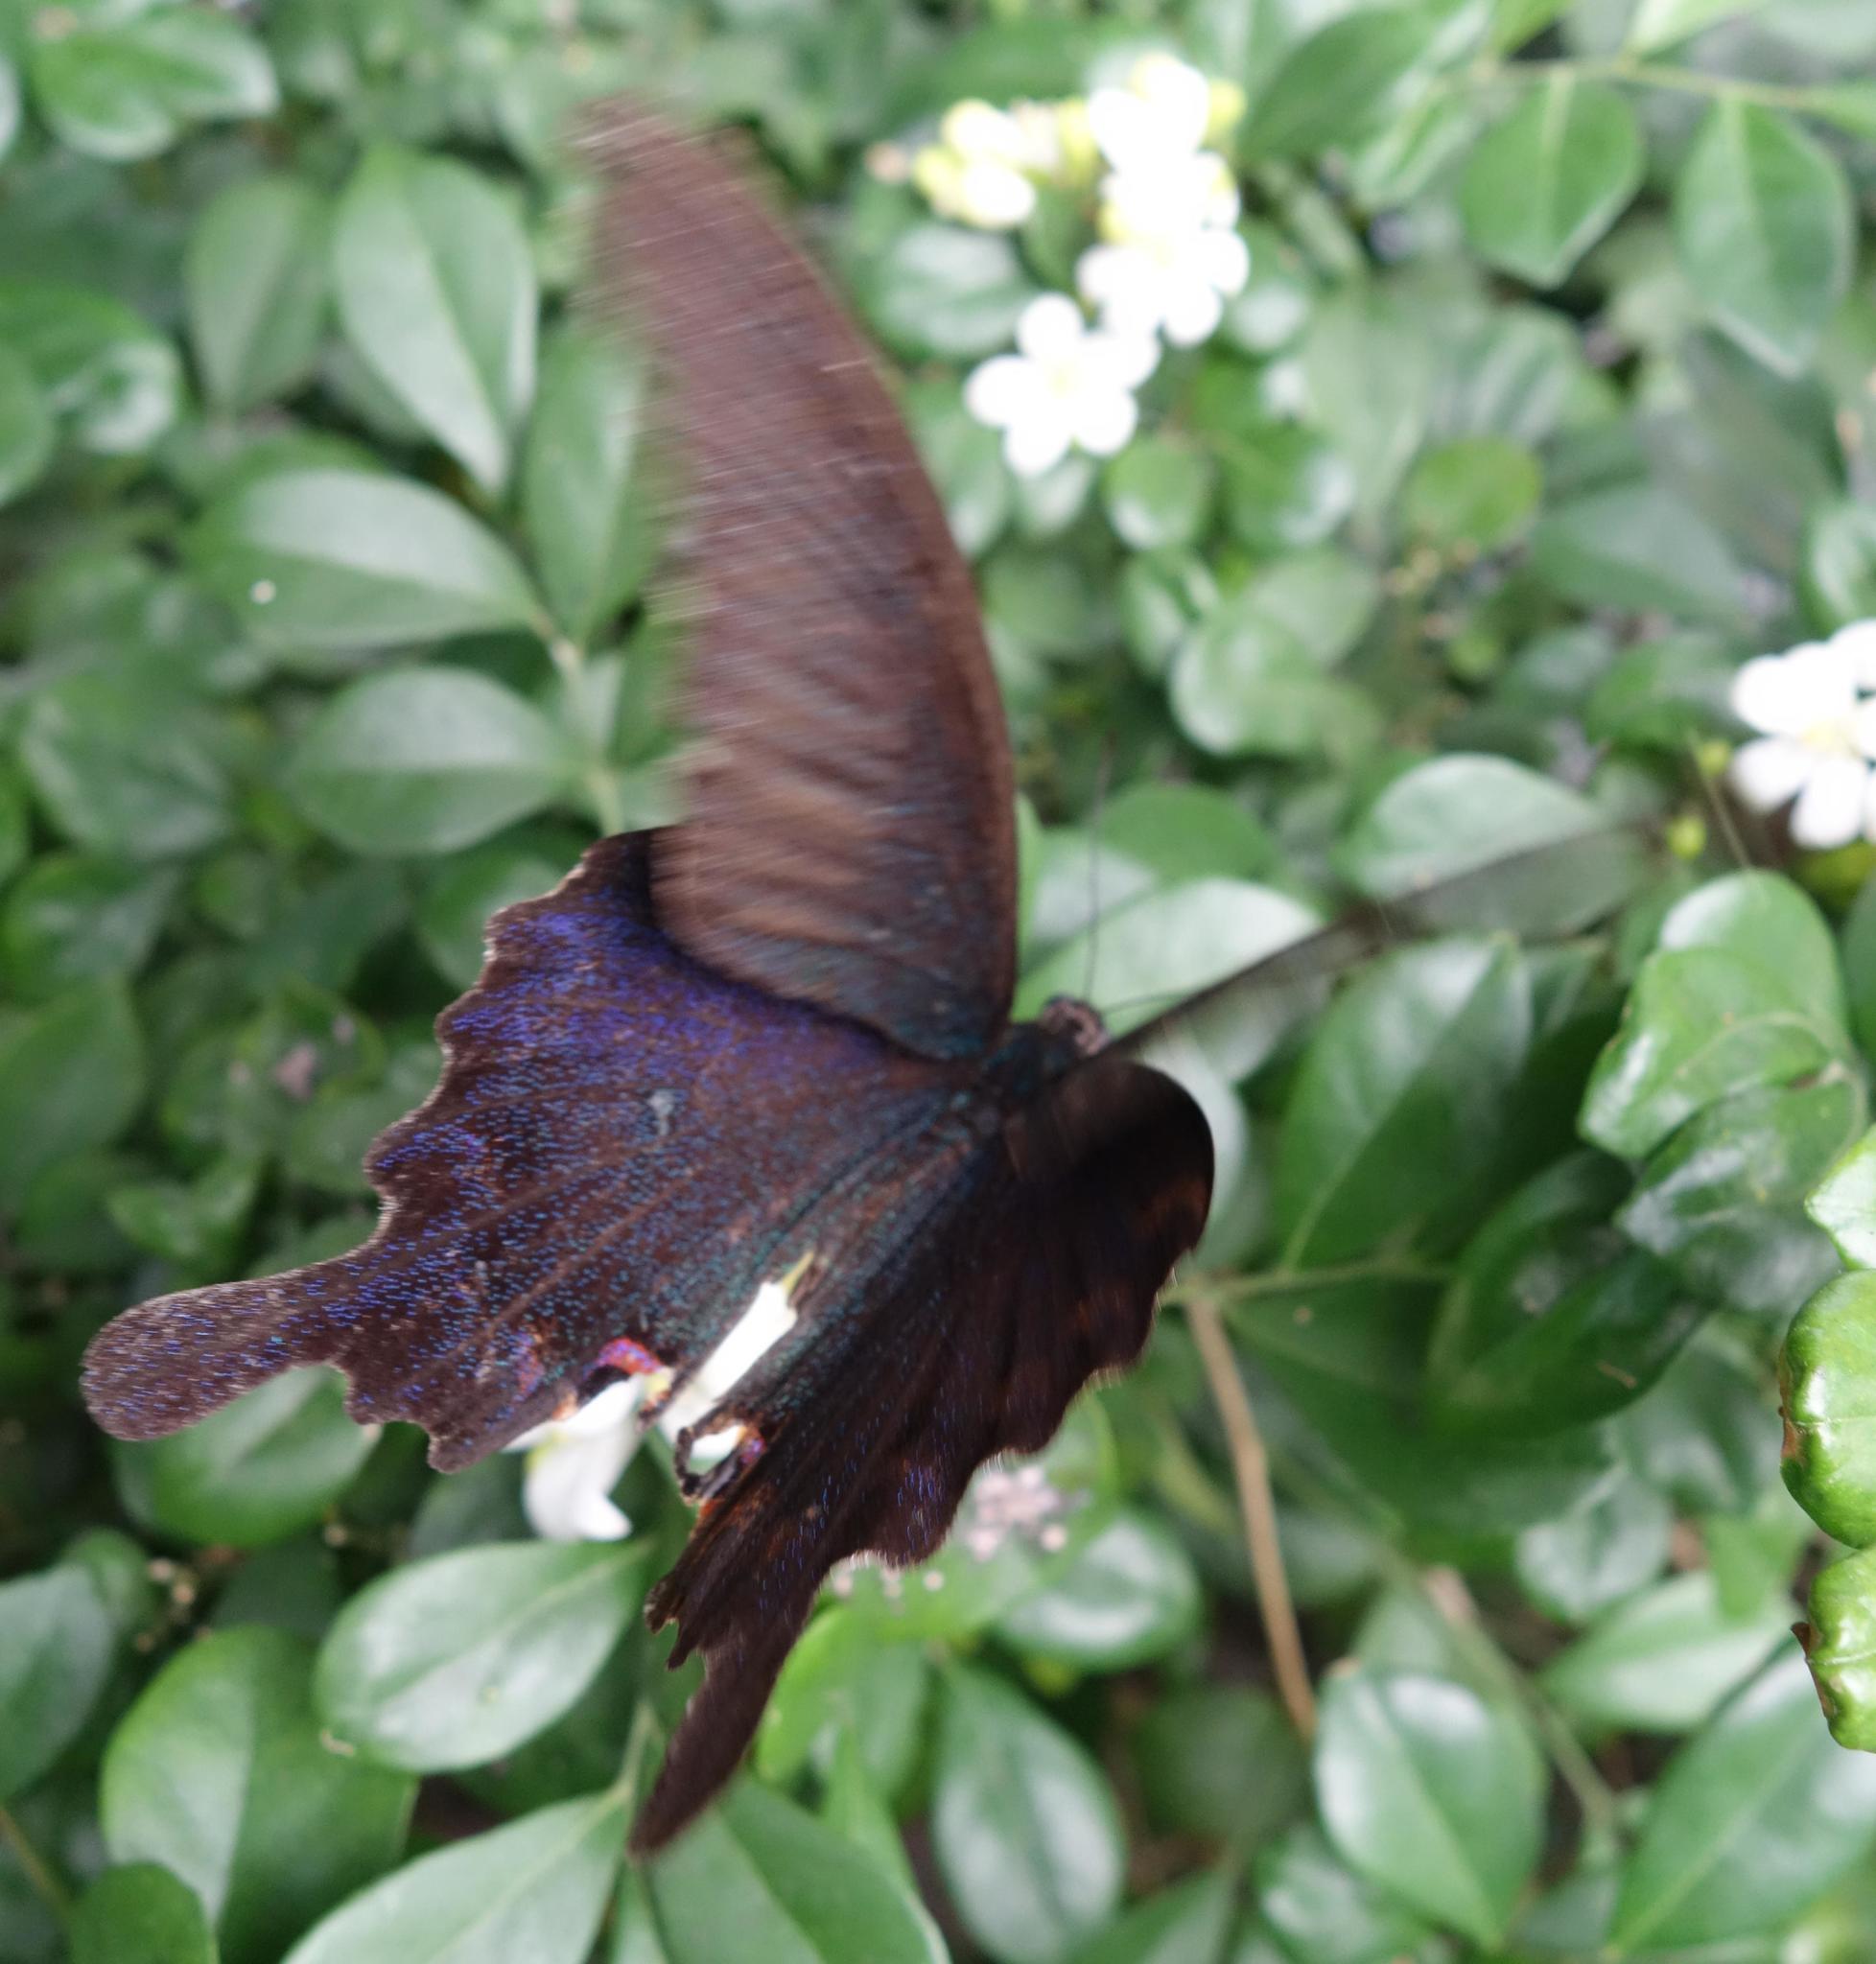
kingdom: Animalia
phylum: Arthropoda
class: Insecta
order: Lepidoptera
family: Papilionidae
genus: Papilio
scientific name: Papilio dialis
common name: Southern chinese peacock swallowtail
